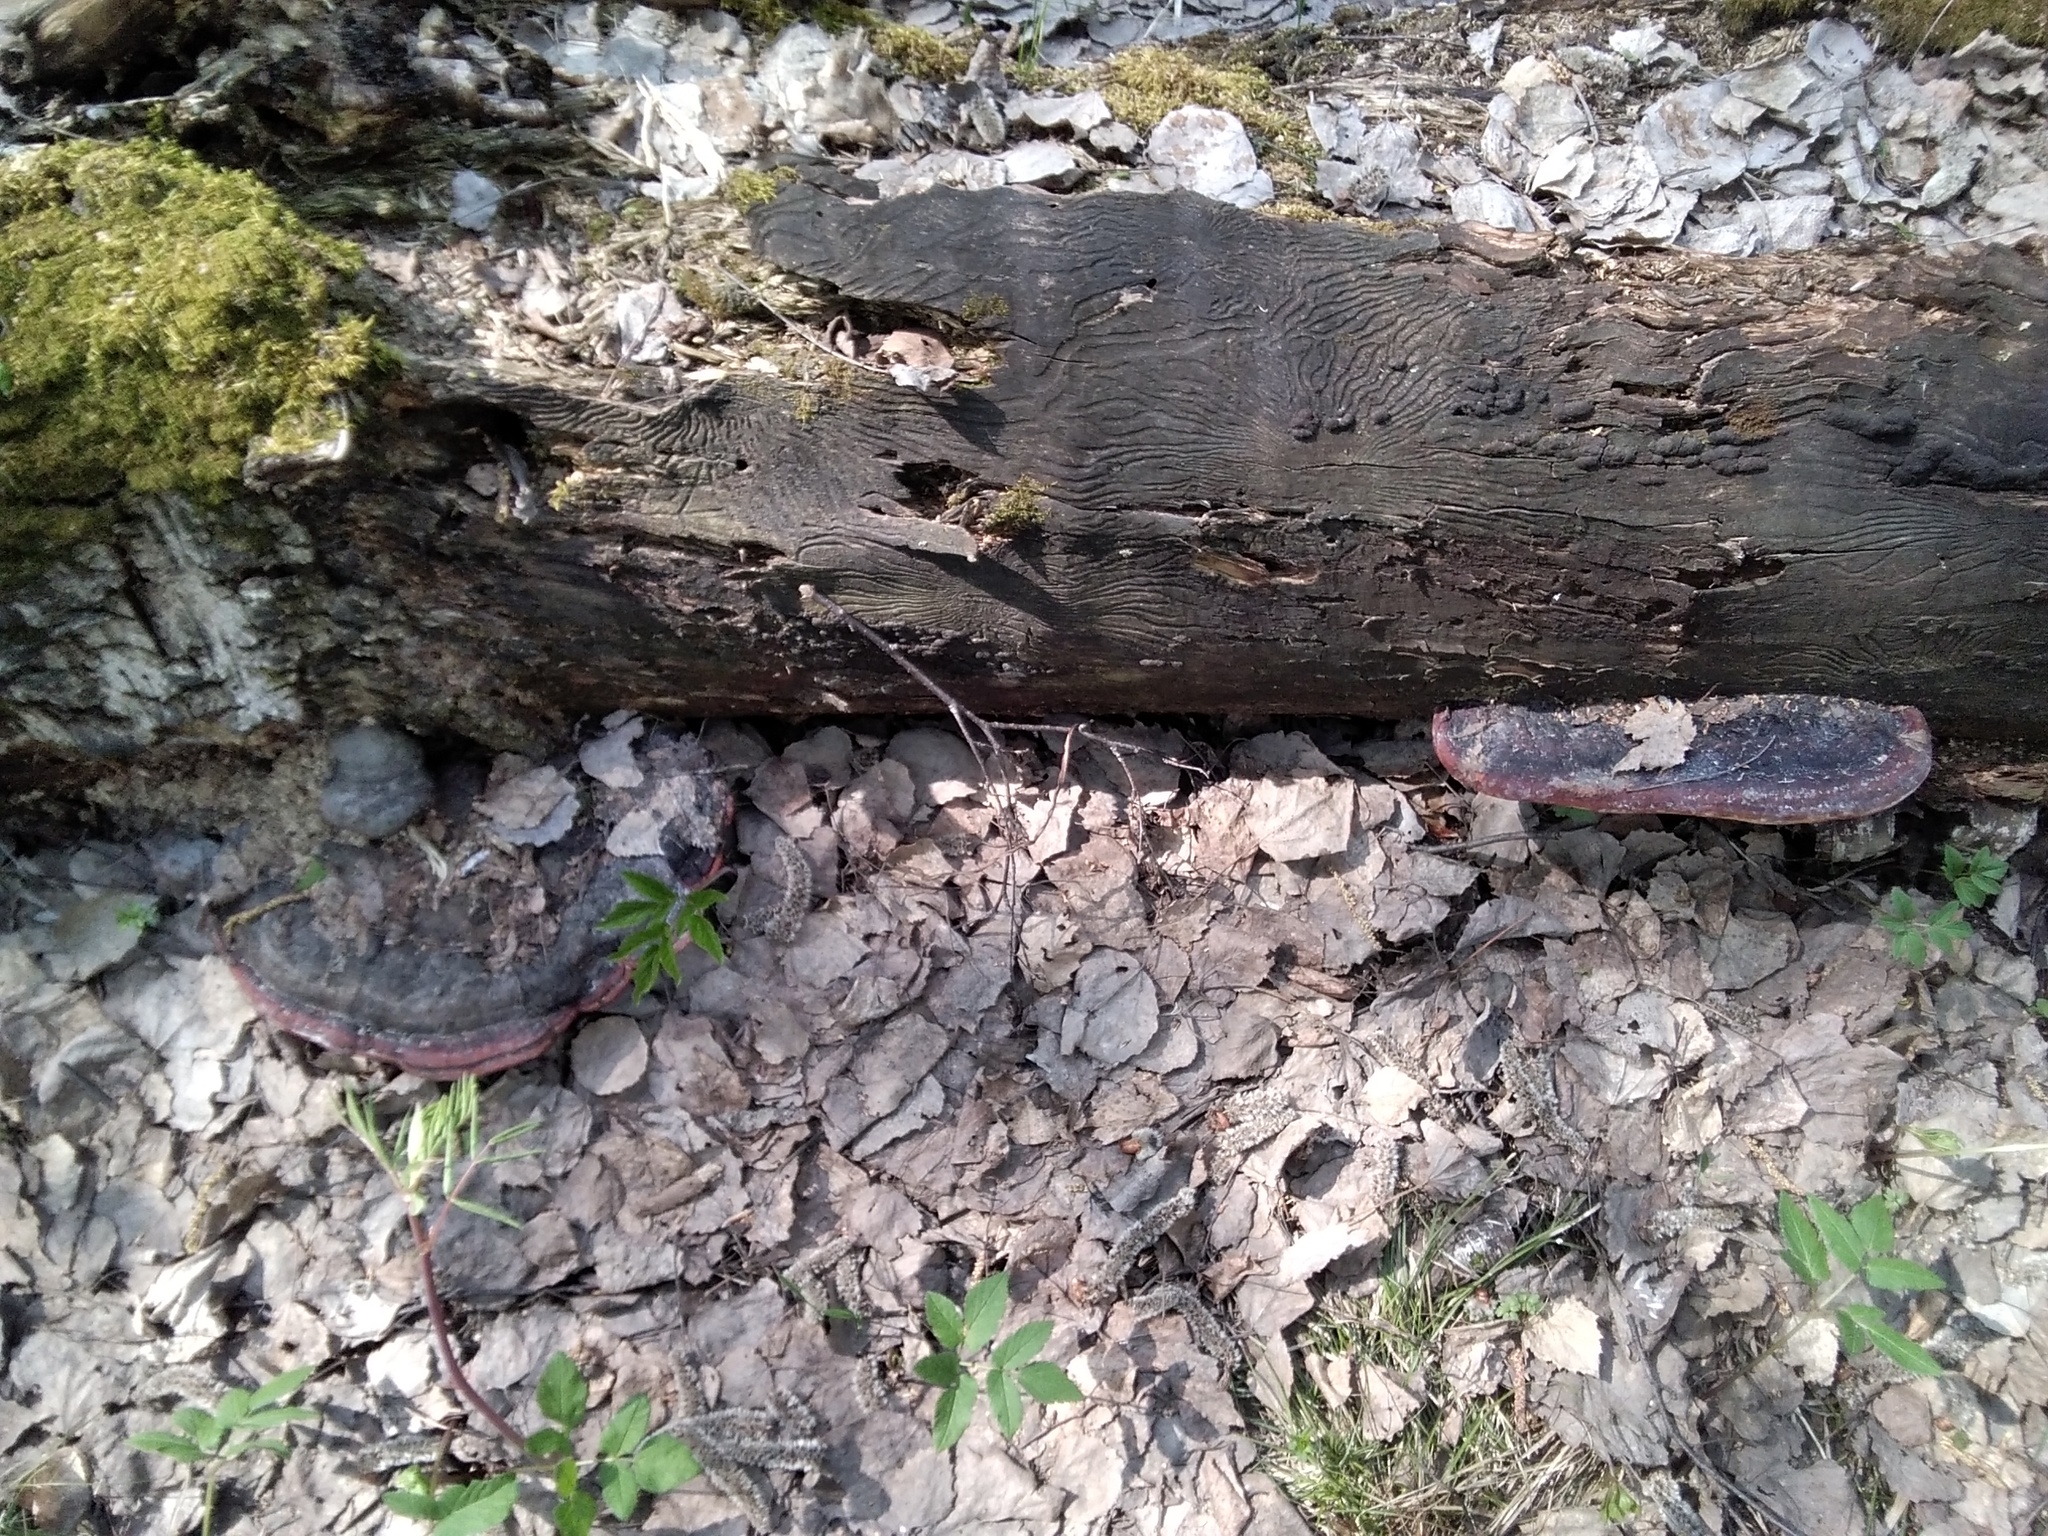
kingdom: Fungi
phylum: Basidiomycota
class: Agaricomycetes
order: Polyporales
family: Fomitopsidaceae
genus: Fomitopsis
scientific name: Fomitopsis pinicola
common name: Red-belted bracket
